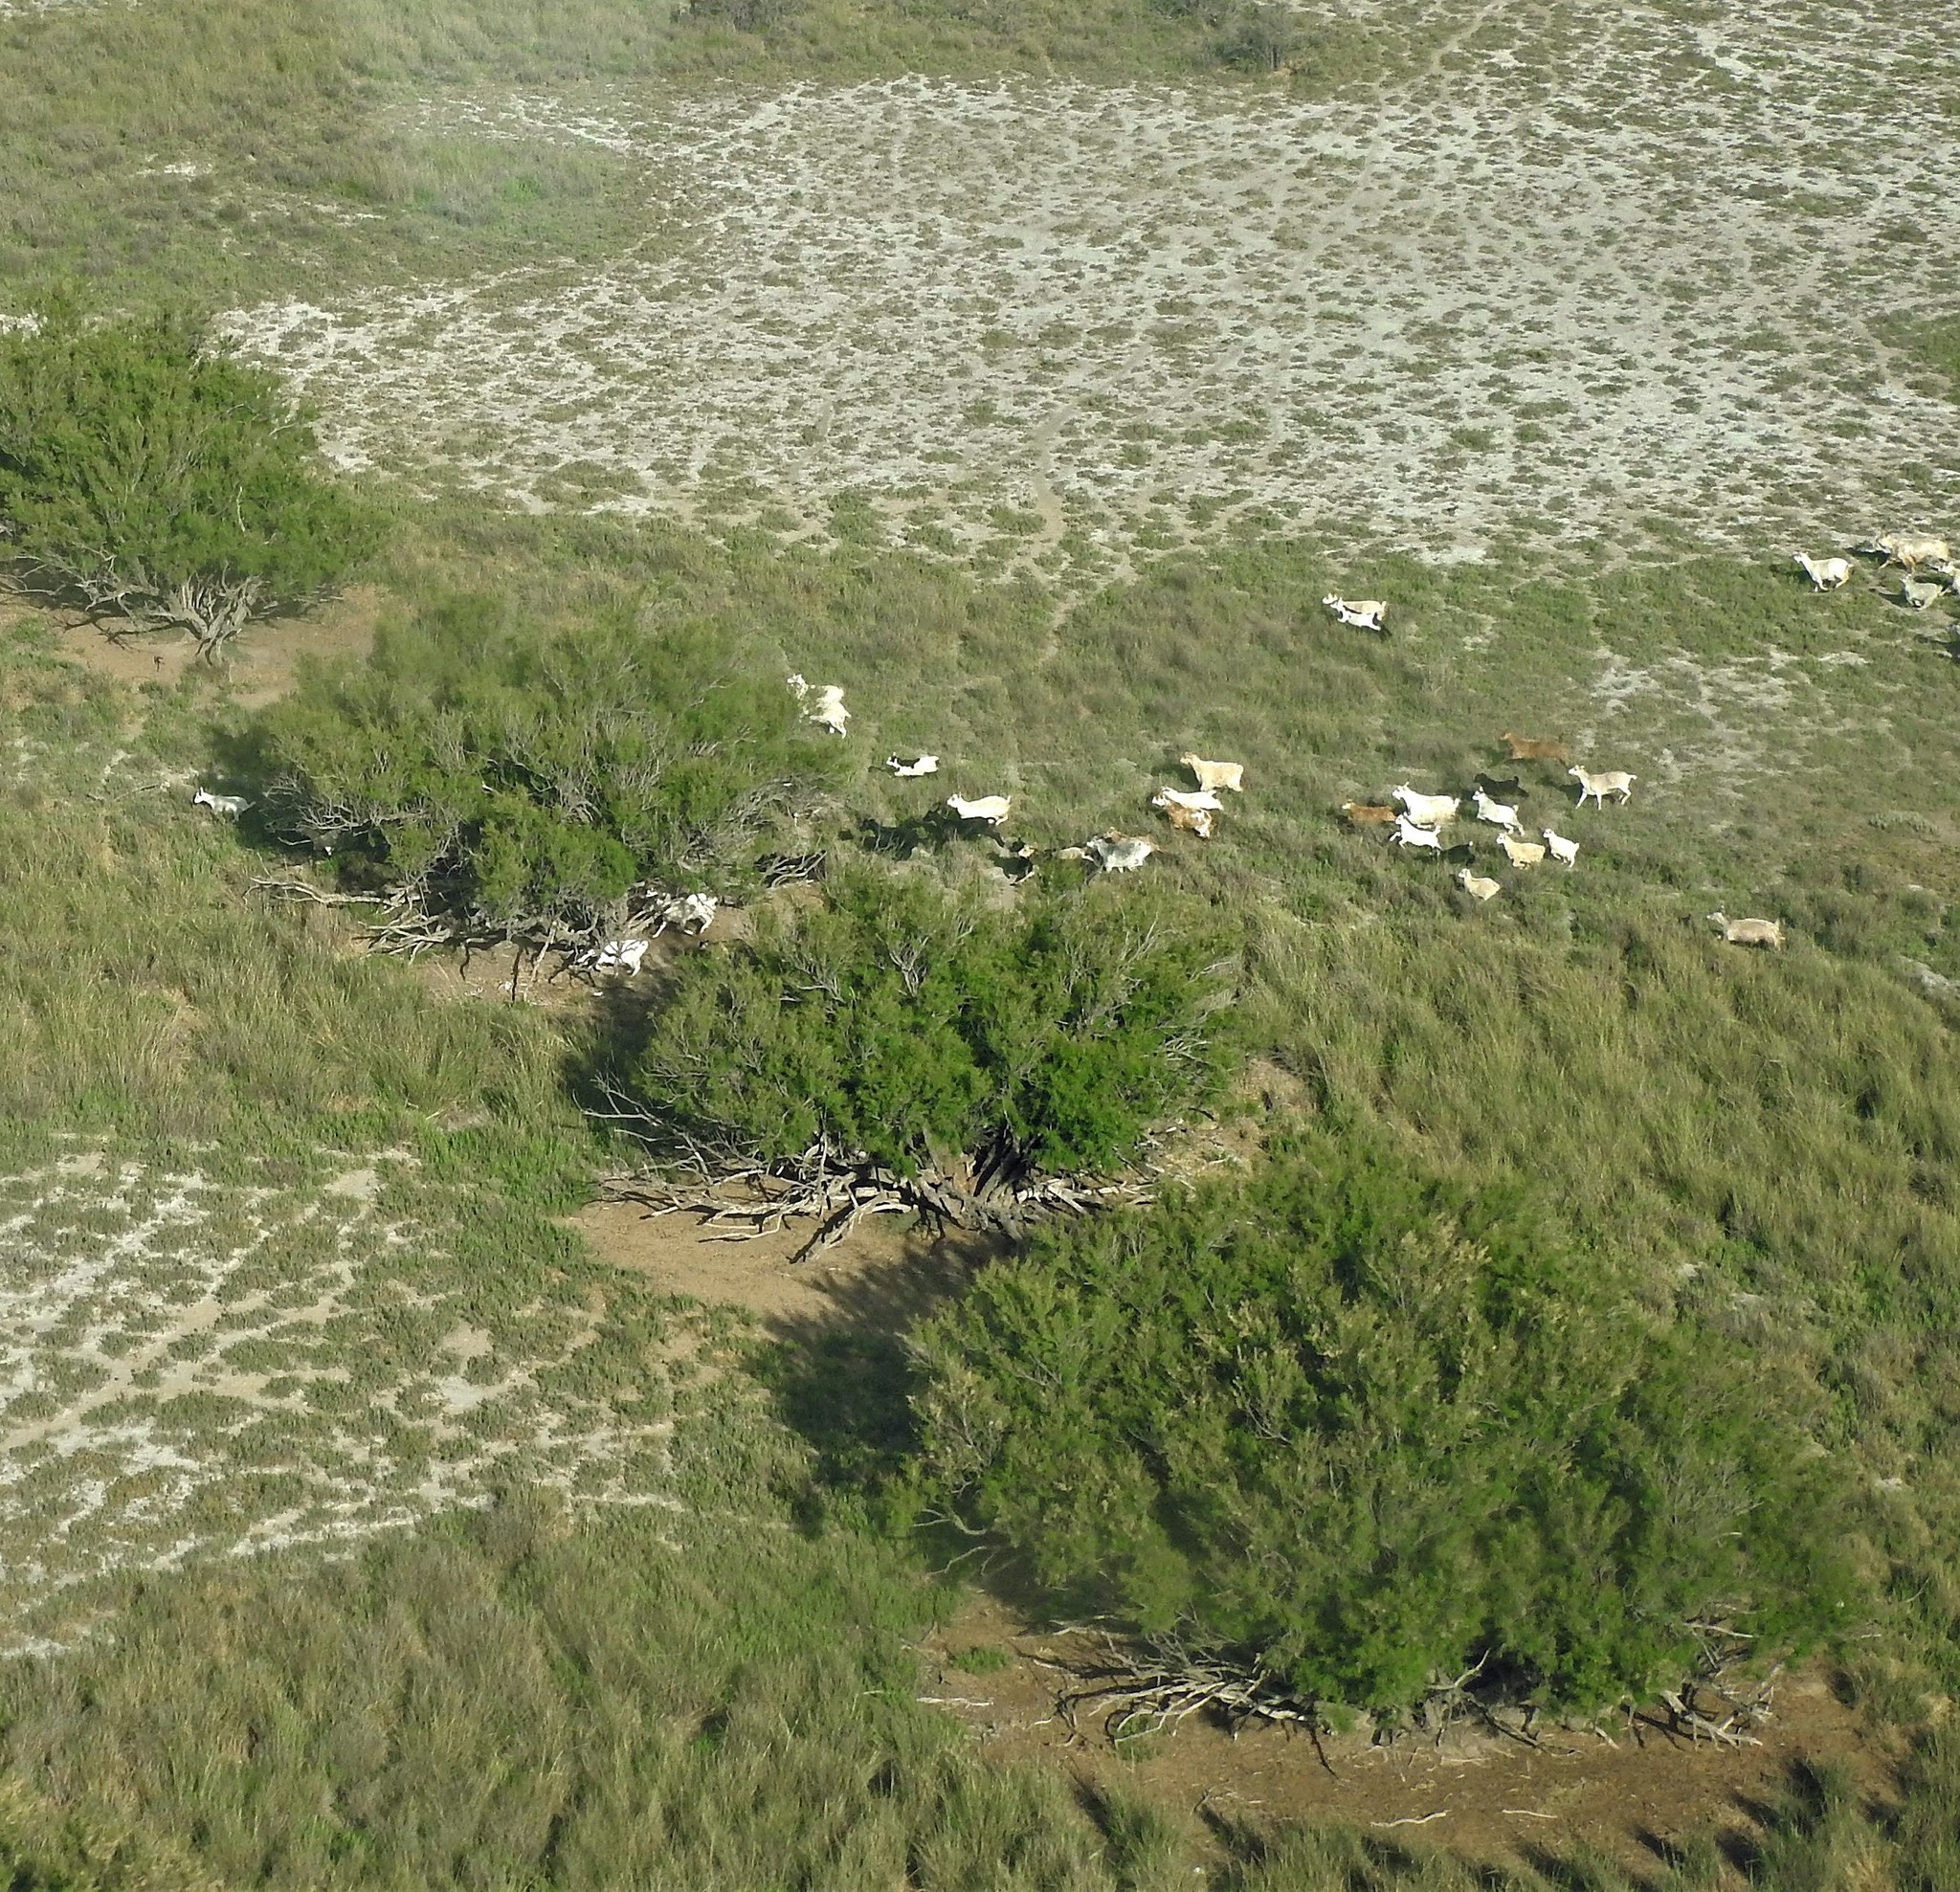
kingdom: Animalia
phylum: Chordata
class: Mammalia
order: Artiodactyla
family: Bovidae
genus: Capra
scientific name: Capra hircus
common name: Domestic goat
